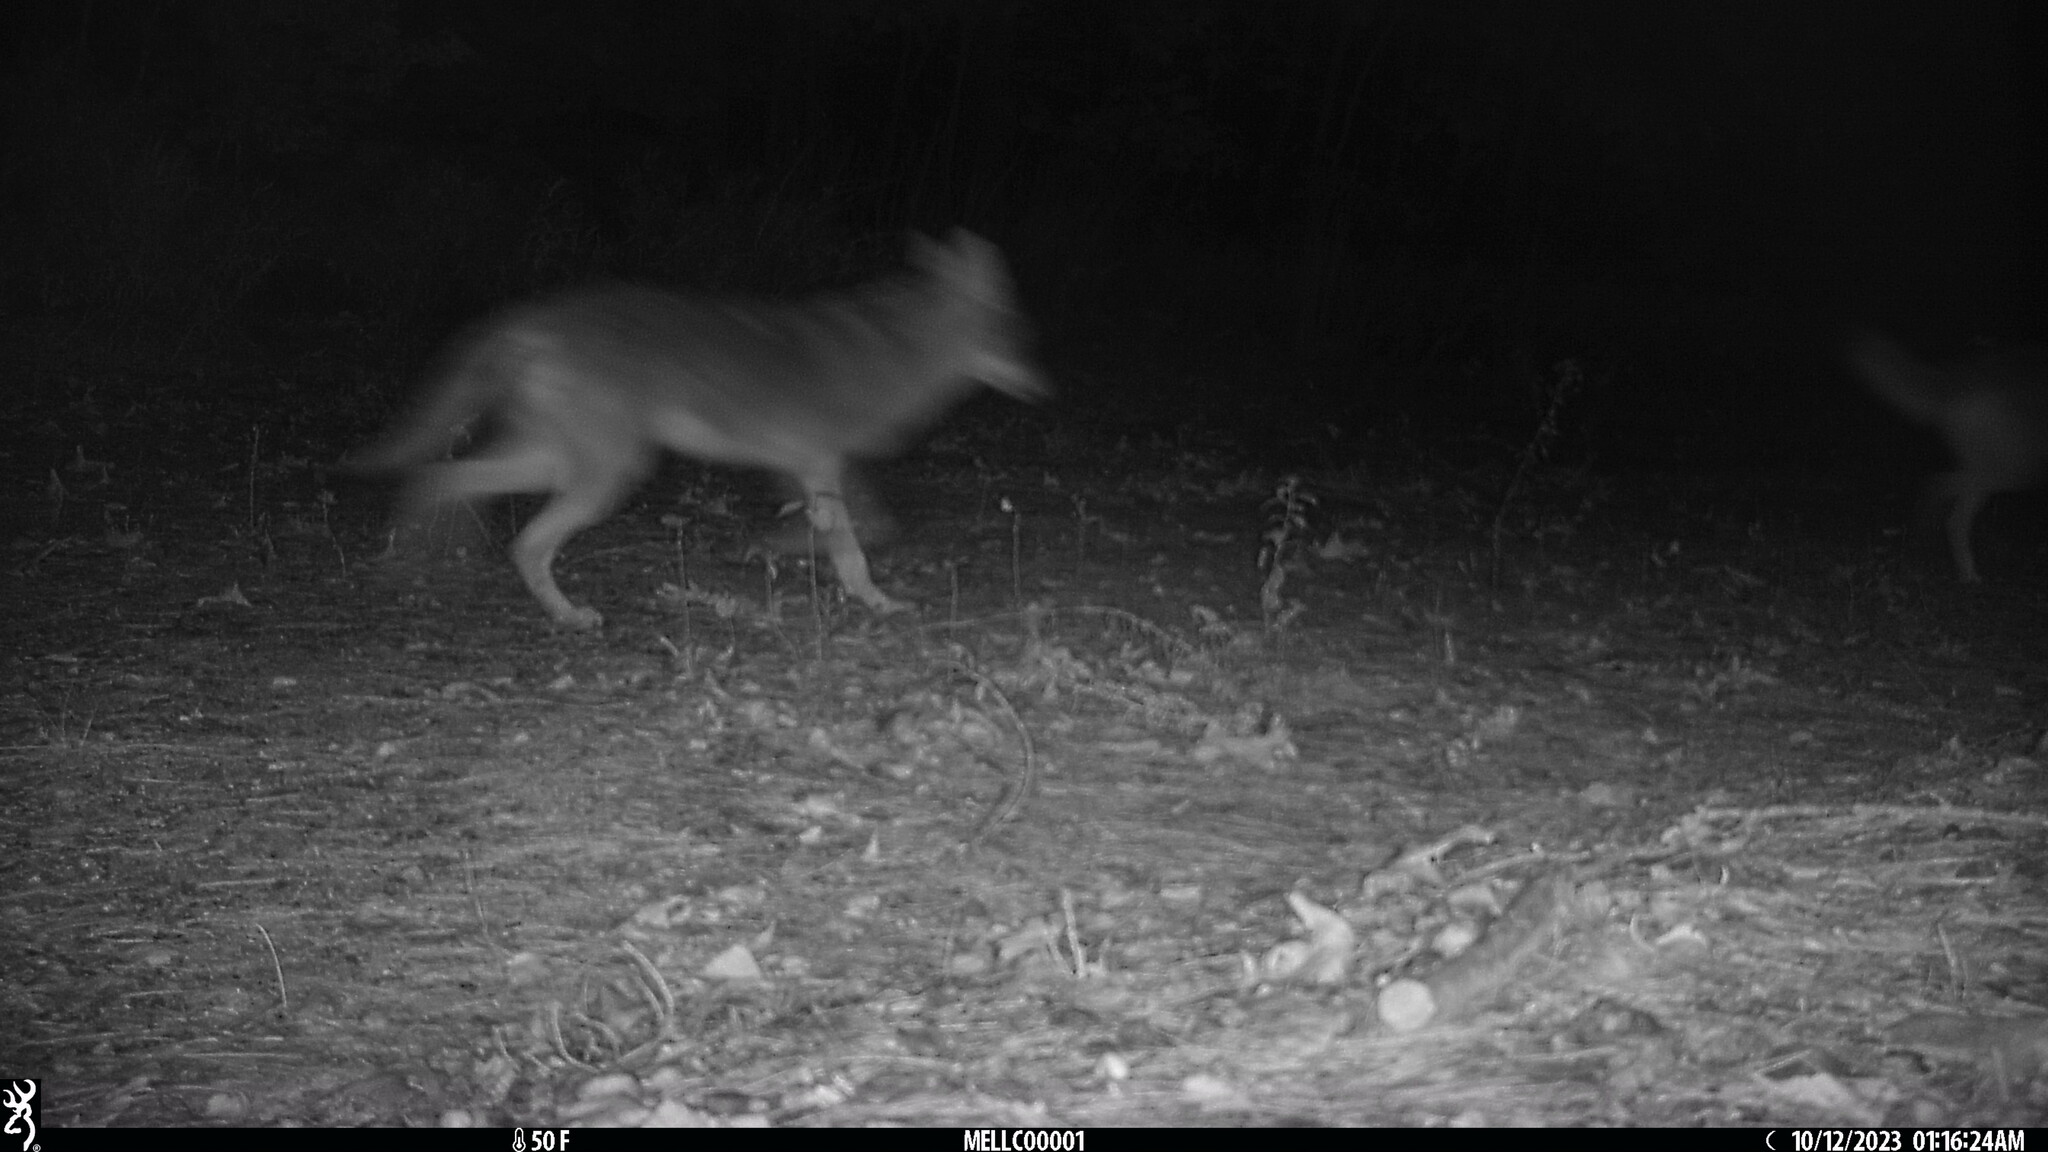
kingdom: Animalia
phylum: Chordata
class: Mammalia
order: Carnivora
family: Canidae
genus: Canis
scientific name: Canis latrans
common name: Coyote
